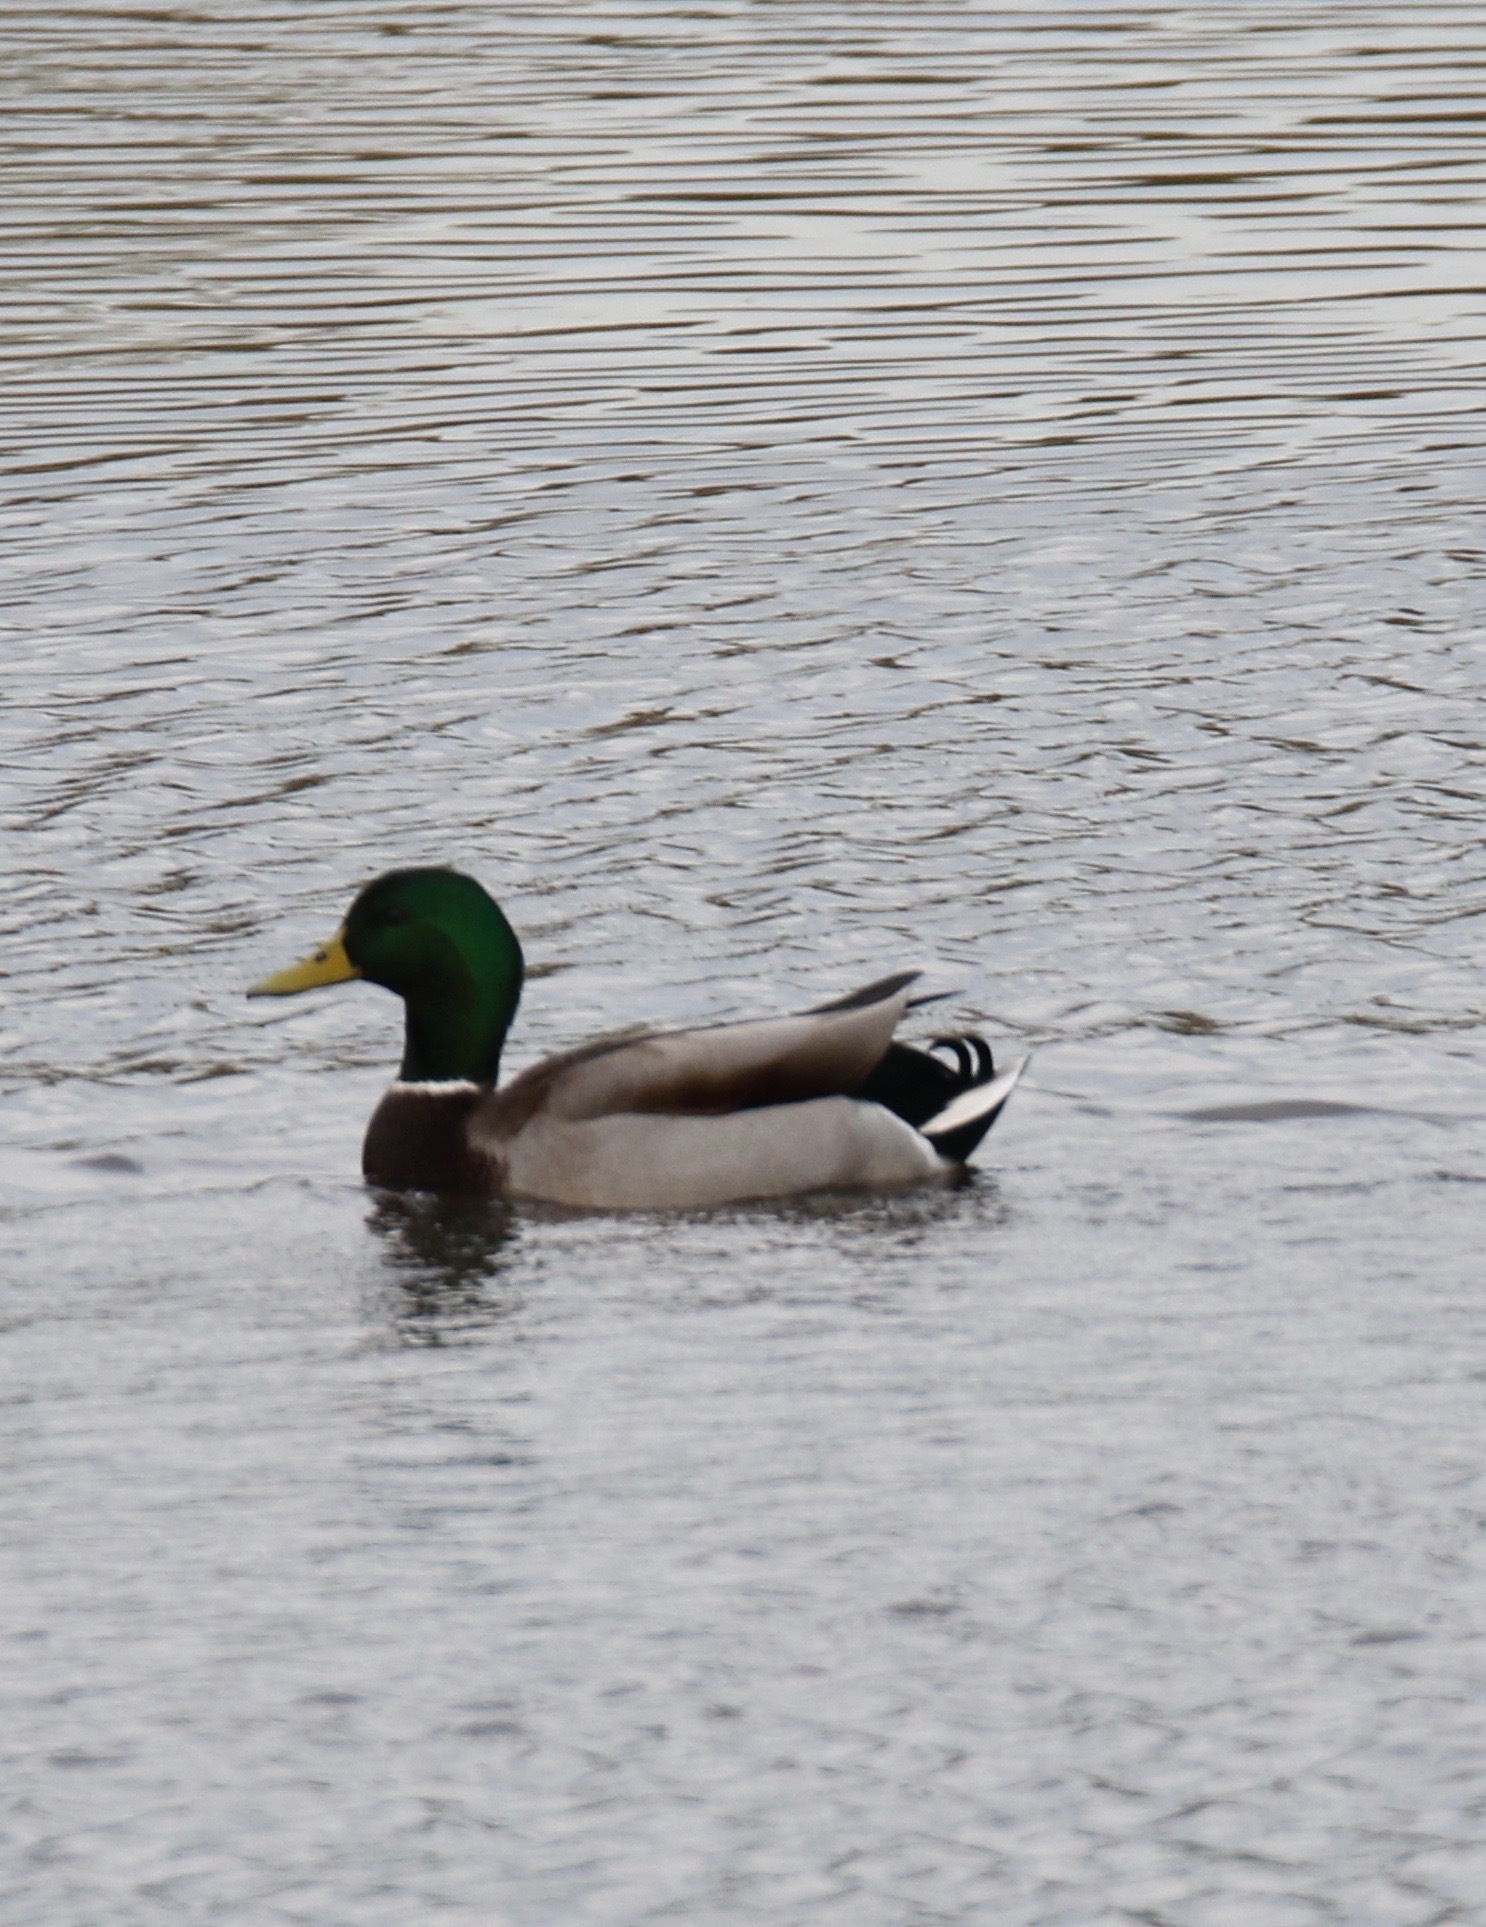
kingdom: Animalia
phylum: Chordata
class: Aves
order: Anseriformes
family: Anatidae
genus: Anas
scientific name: Anas platyrhynchos
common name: Mallard
